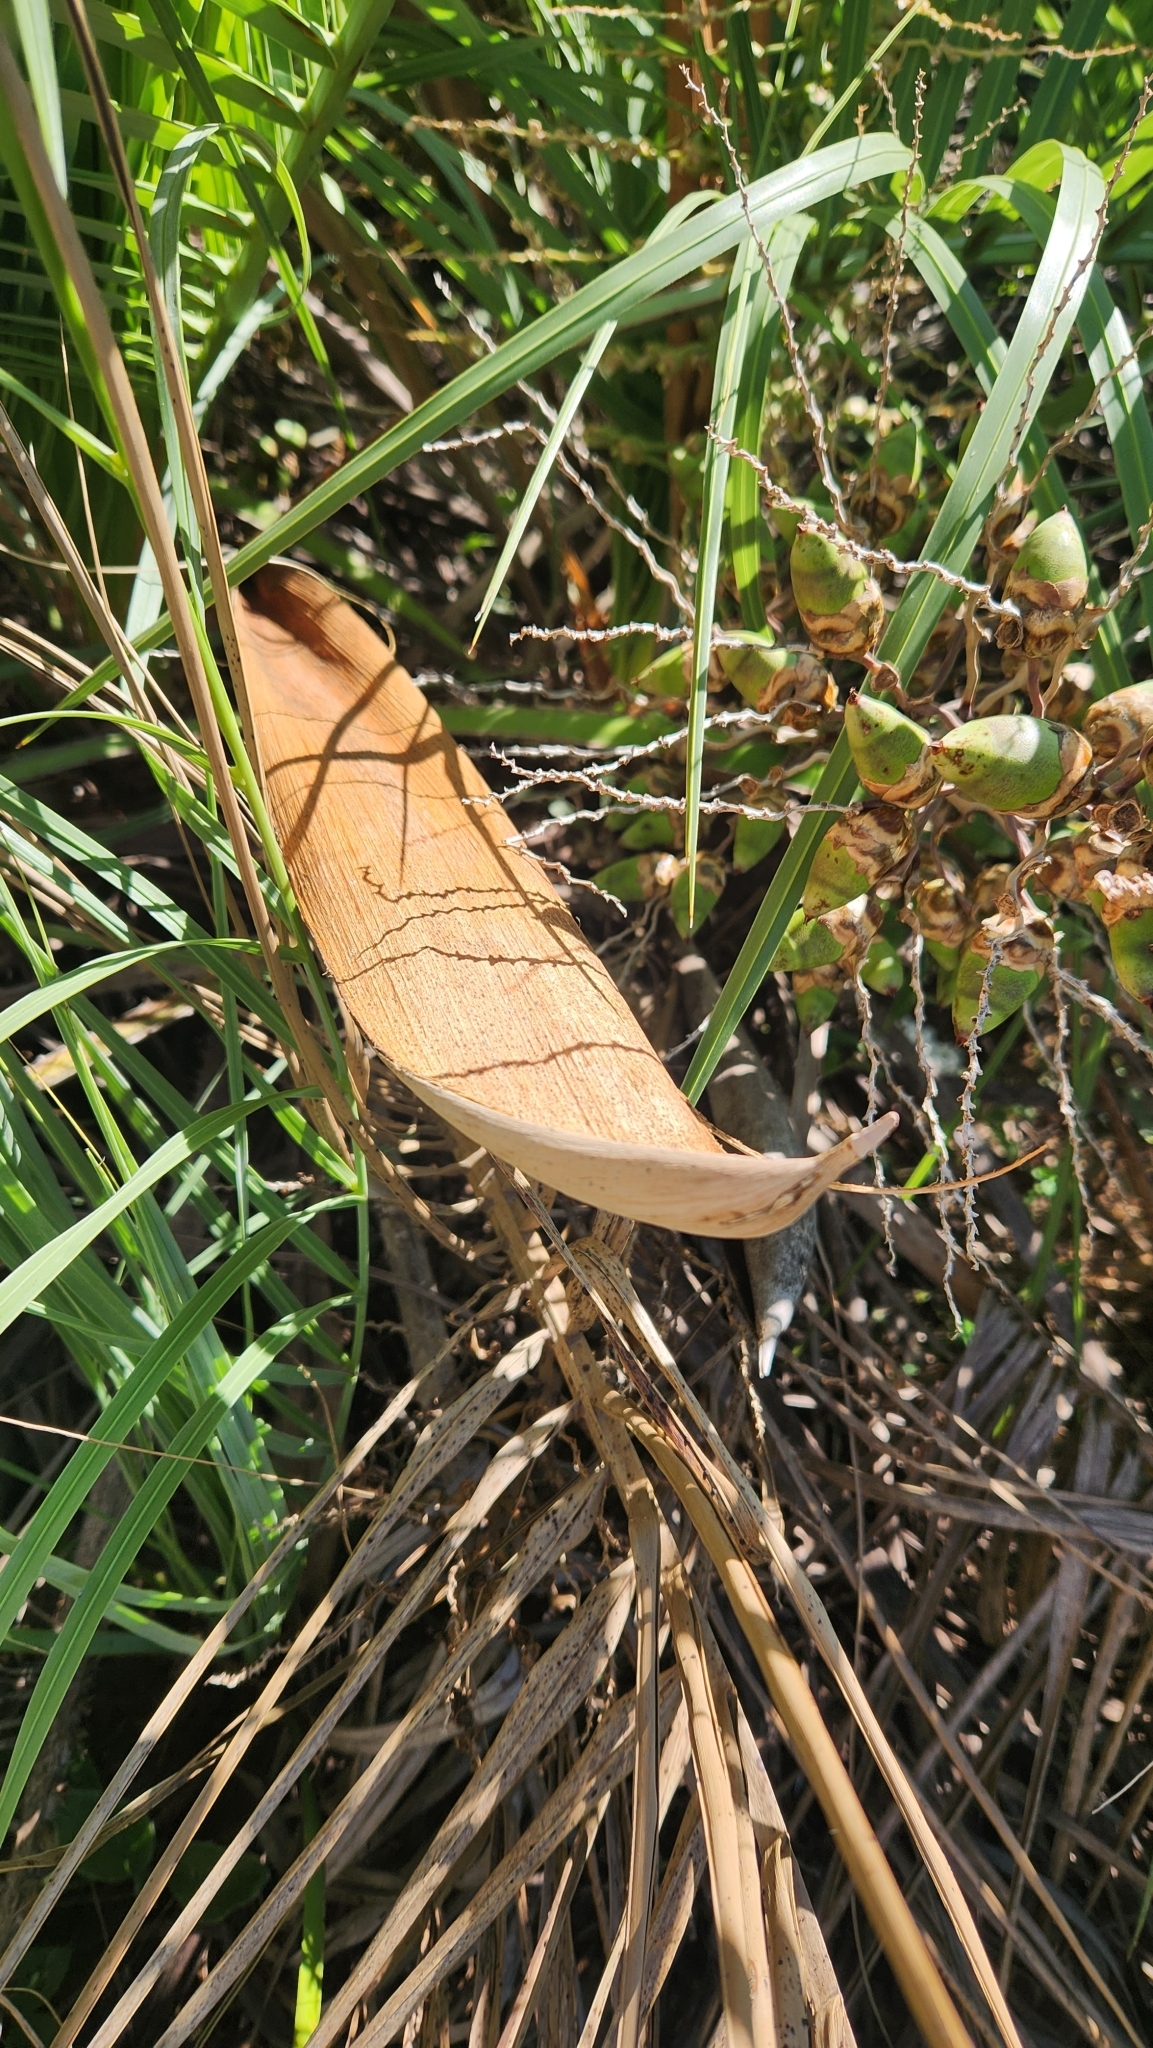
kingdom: Plantae
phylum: Tracheophyta
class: Liliopsida
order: Arecales
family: Arecaceae
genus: Butia
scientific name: Butia paraguayensis
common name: Dwarf yatay palm
